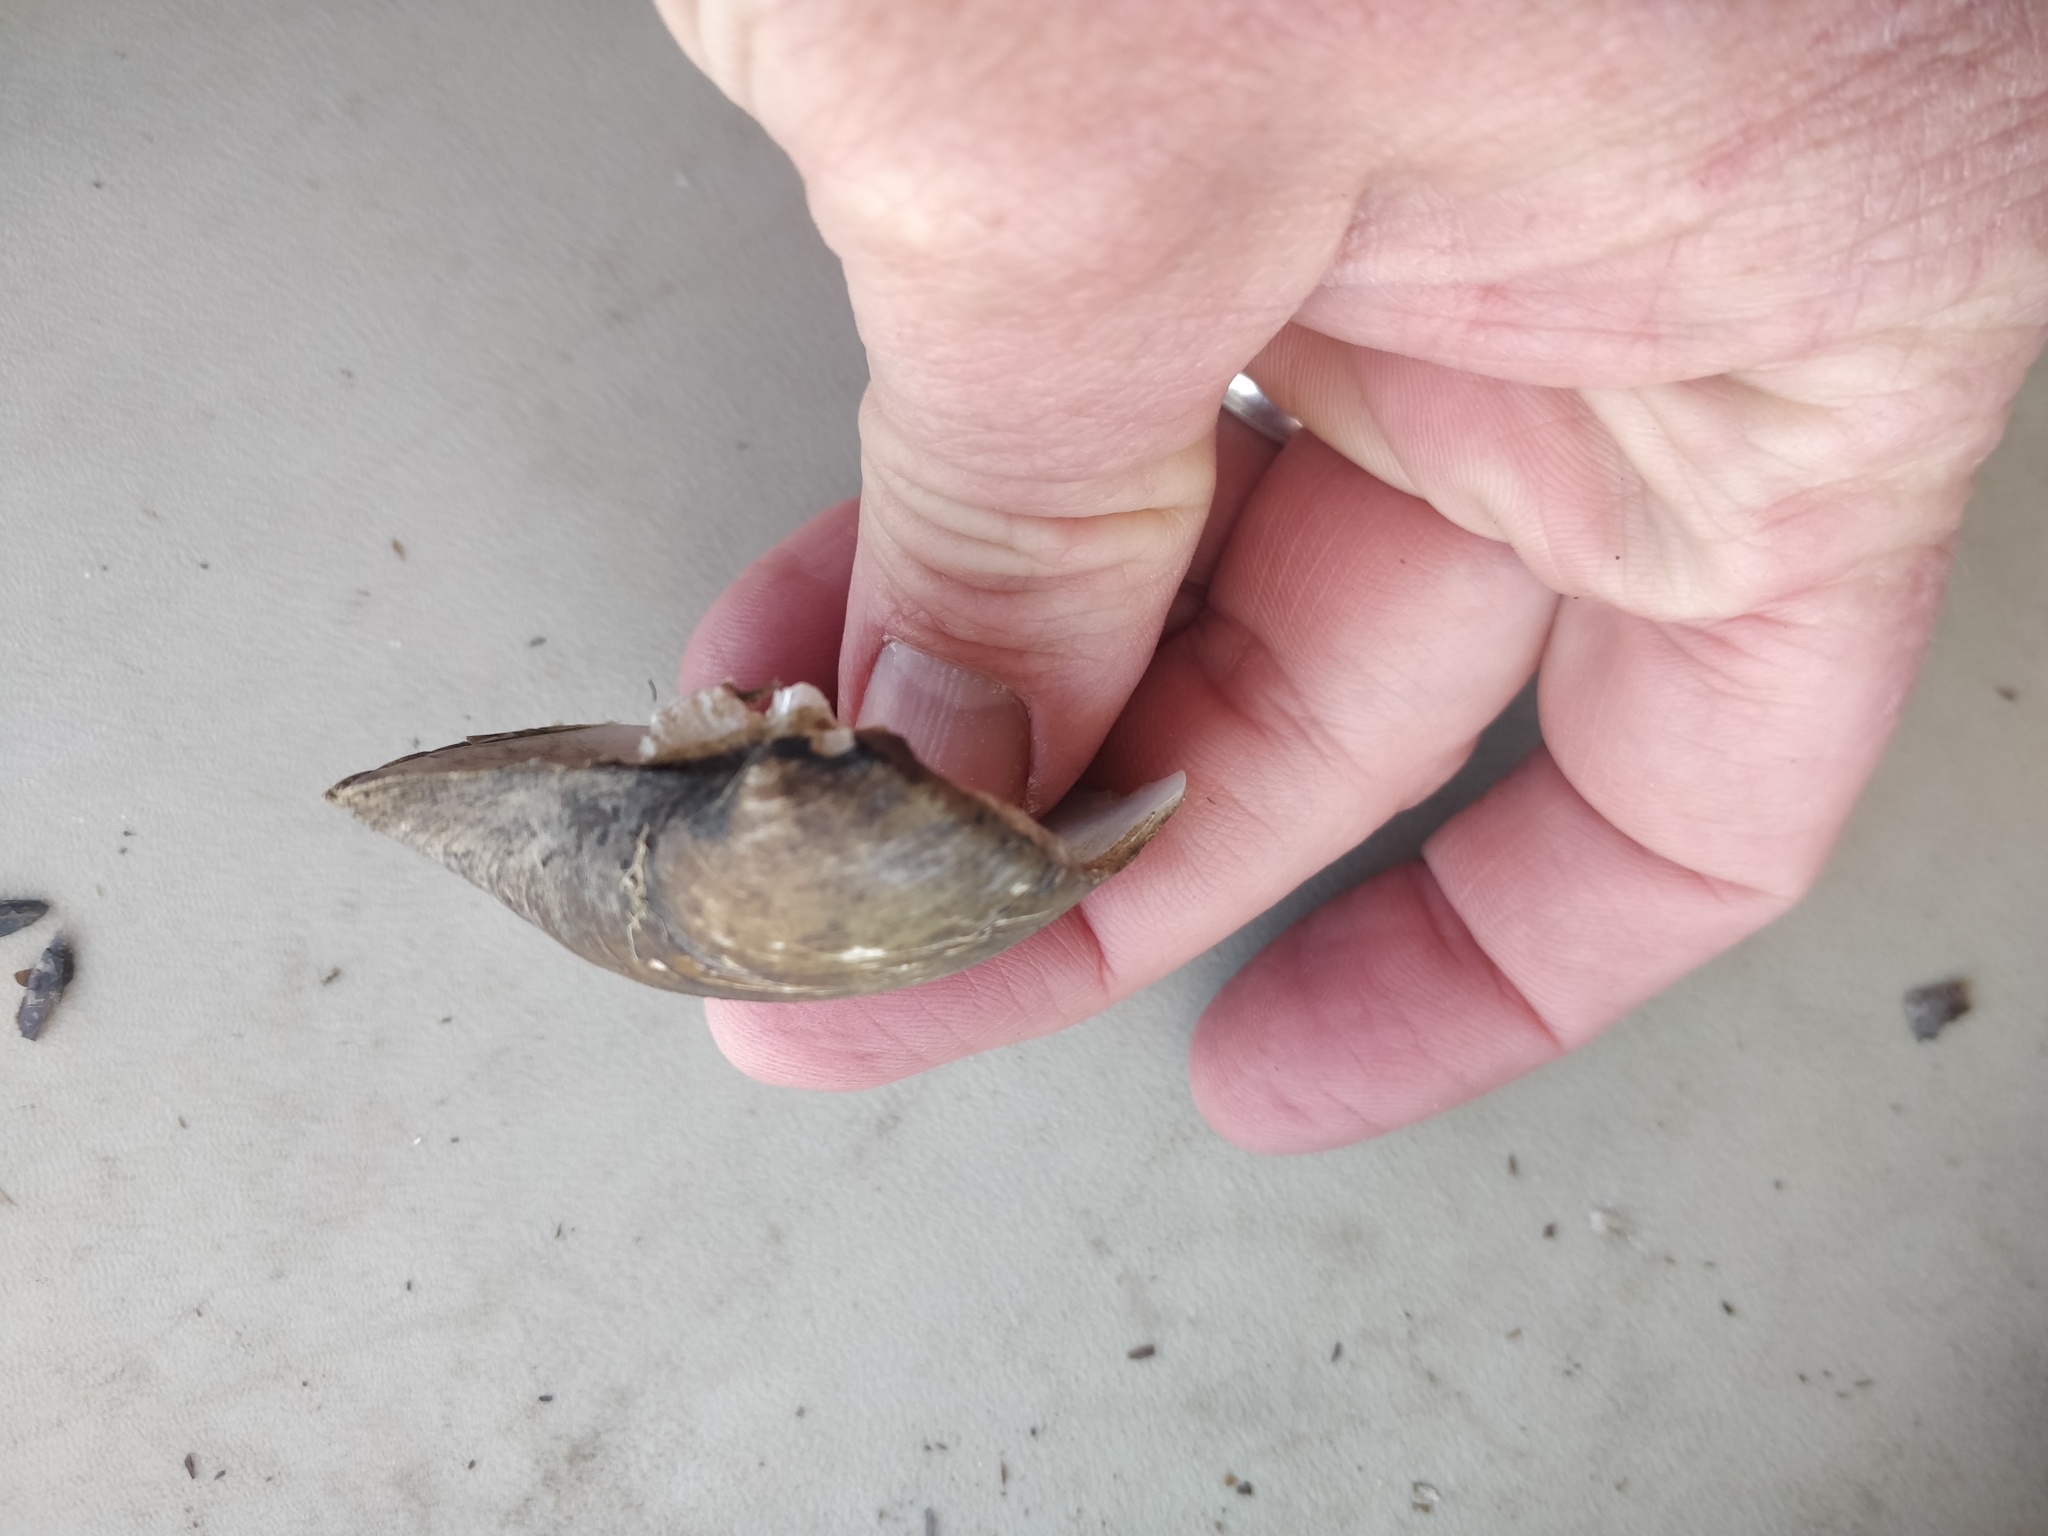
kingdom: Animalia
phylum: Mollusca
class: Bivalvia
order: Unionida
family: Unionidae
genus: Truncilla
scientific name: Truncilla truncata
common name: Deertoe
